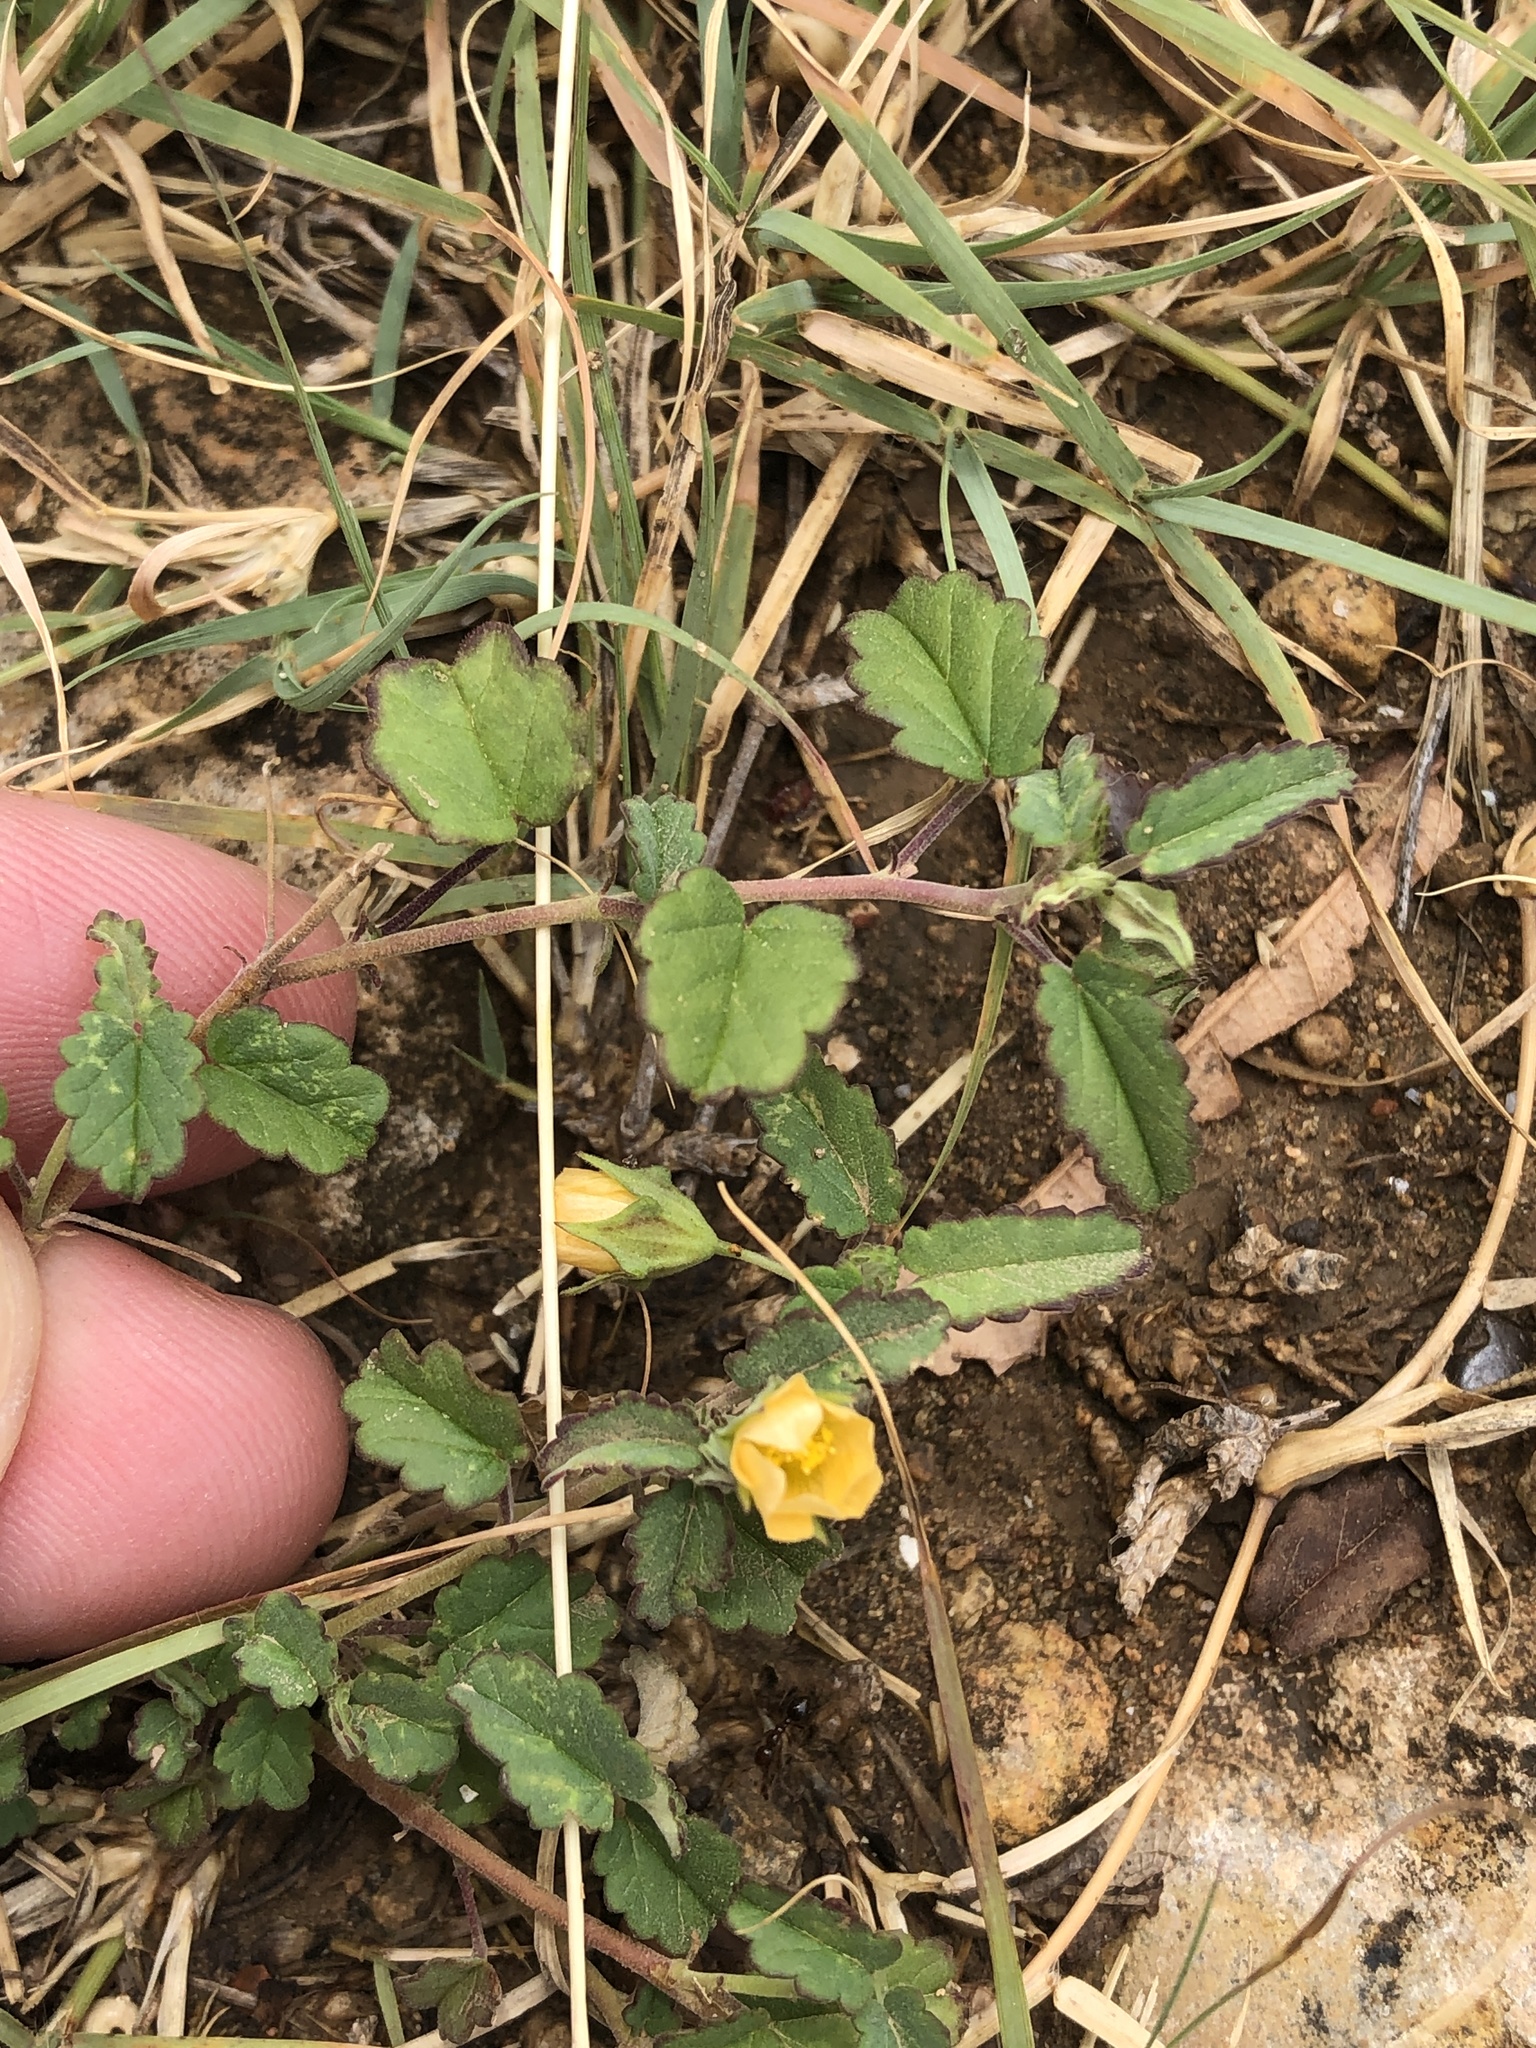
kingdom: Plantae
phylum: Tracheophyta
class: Magnoliopsida
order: Malvales
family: Malvaceae
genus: Sida
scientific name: Sida abutilifolia
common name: Spreading fanpetals
